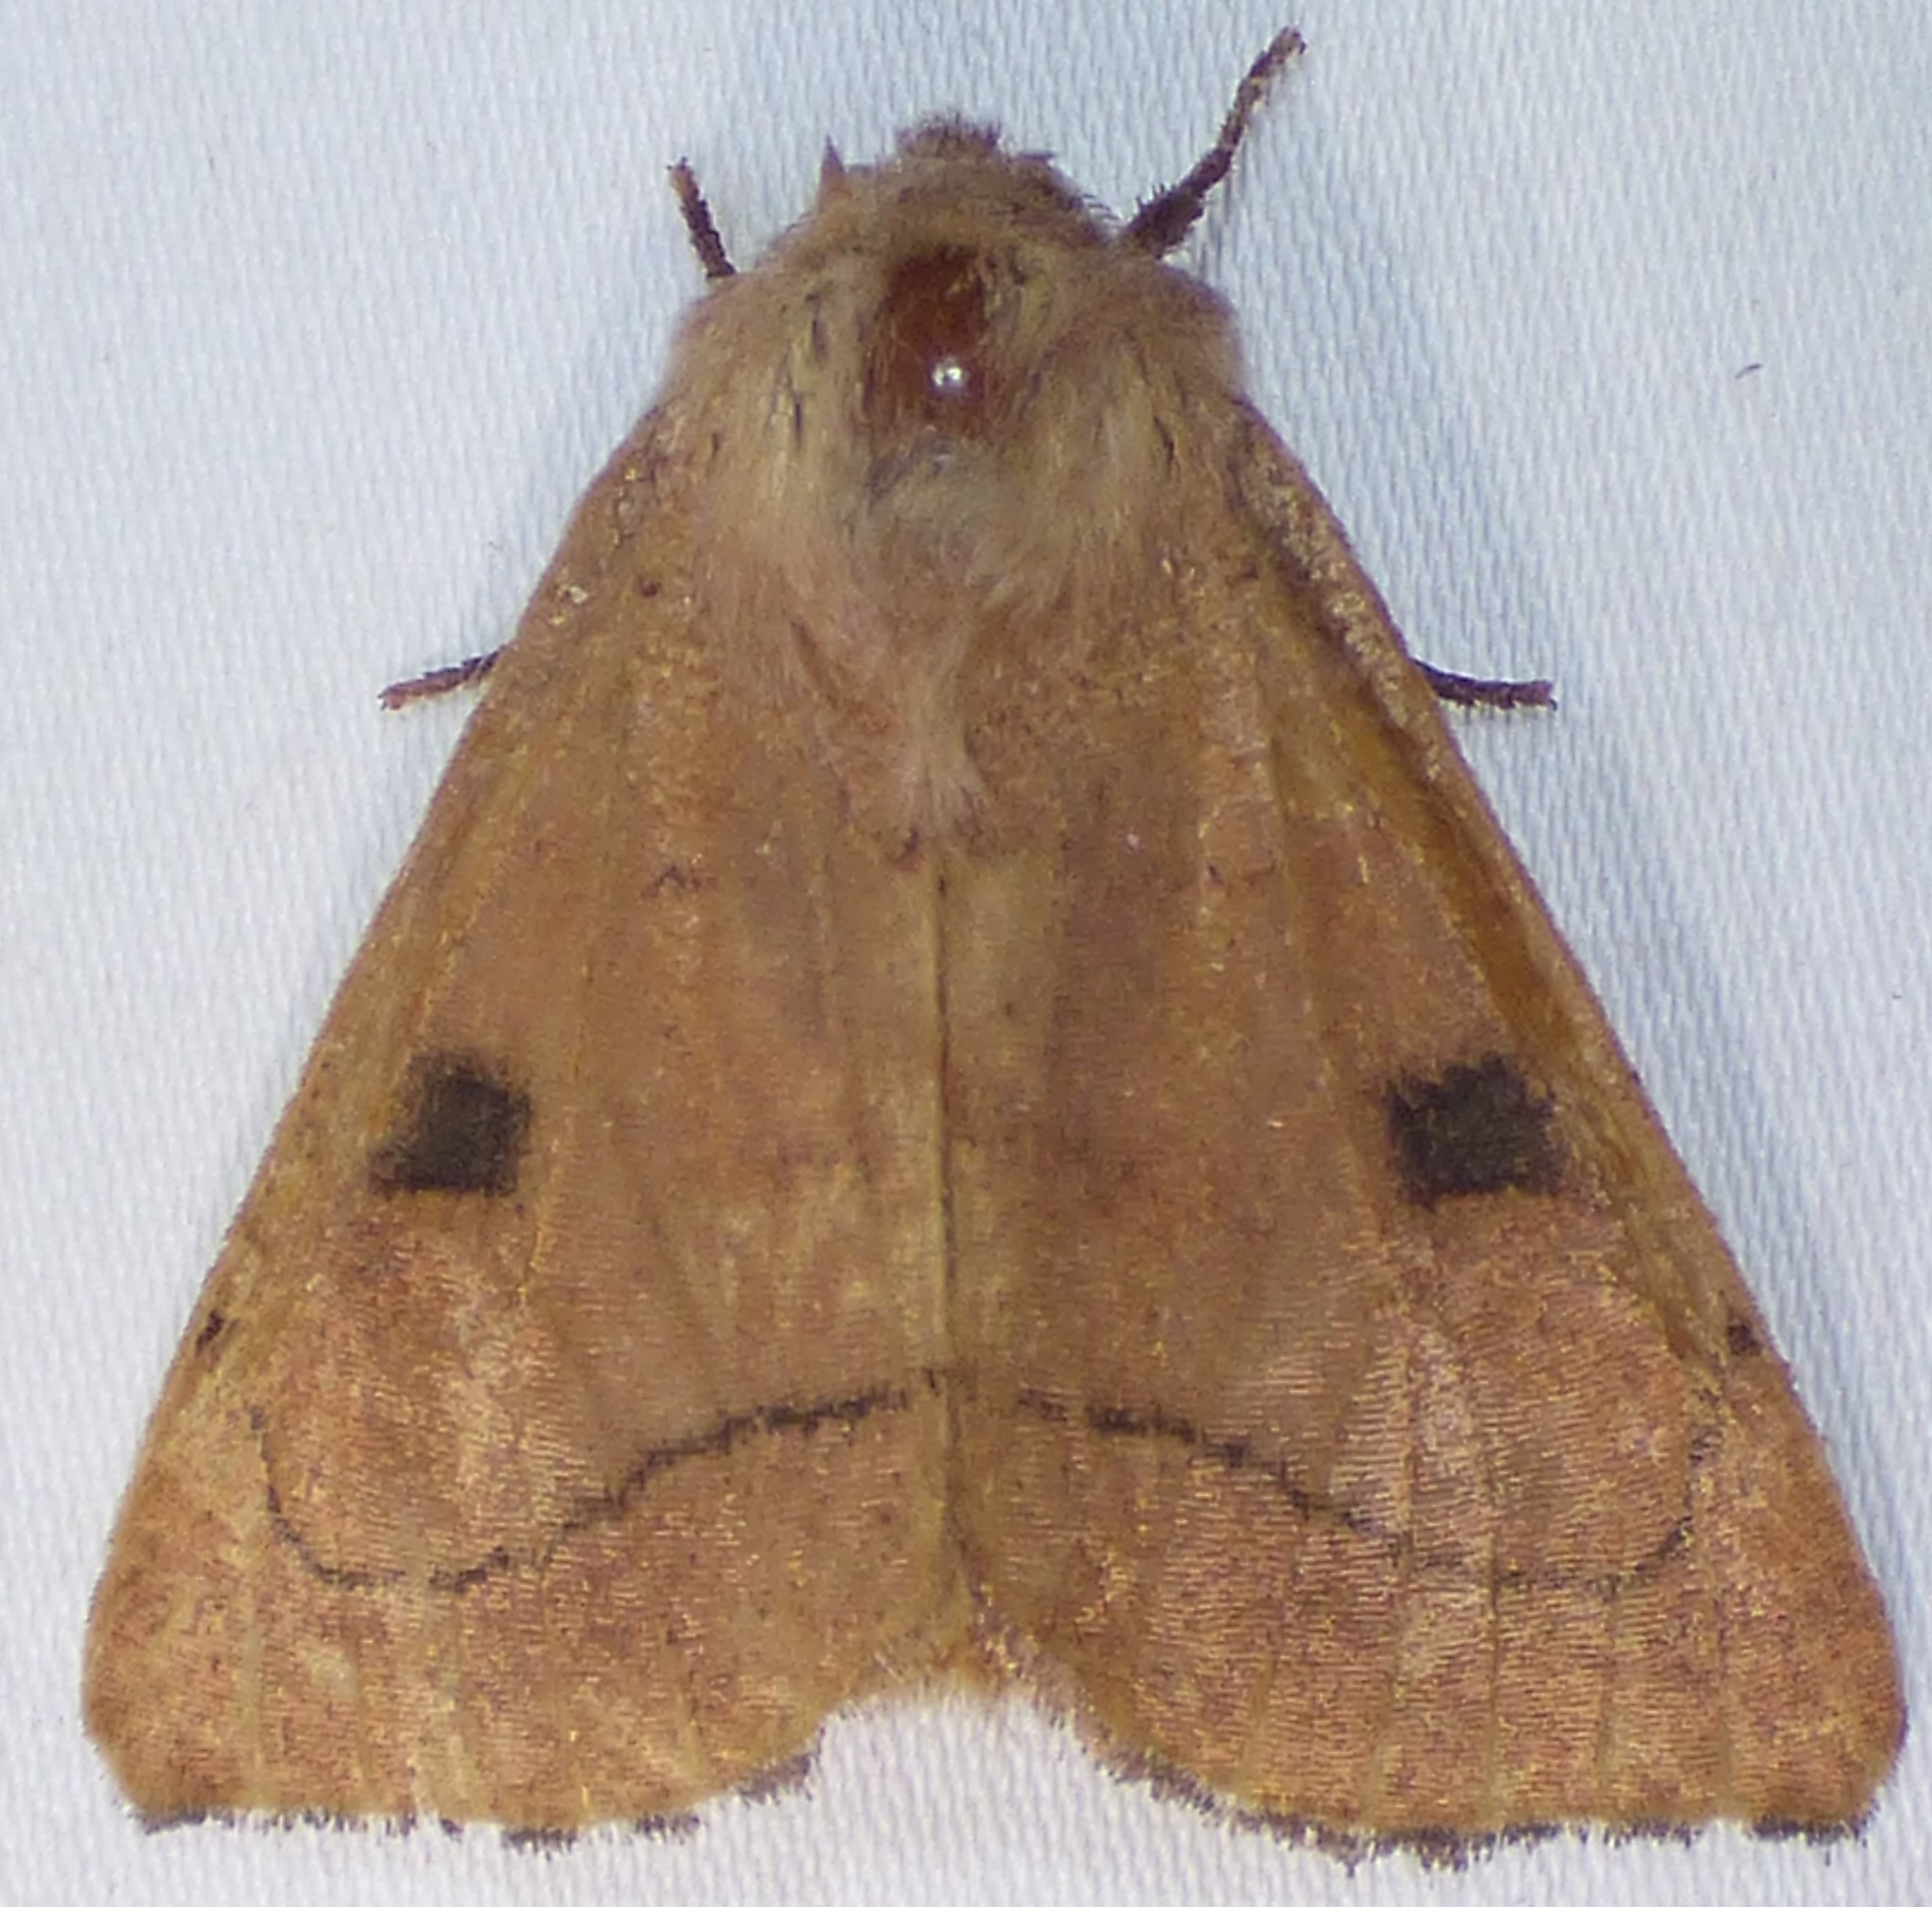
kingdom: Animalia
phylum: Arthropoda
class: Insecta
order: Lepidoptera
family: Noctuidae
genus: Choephora
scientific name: Choephora fungorum
